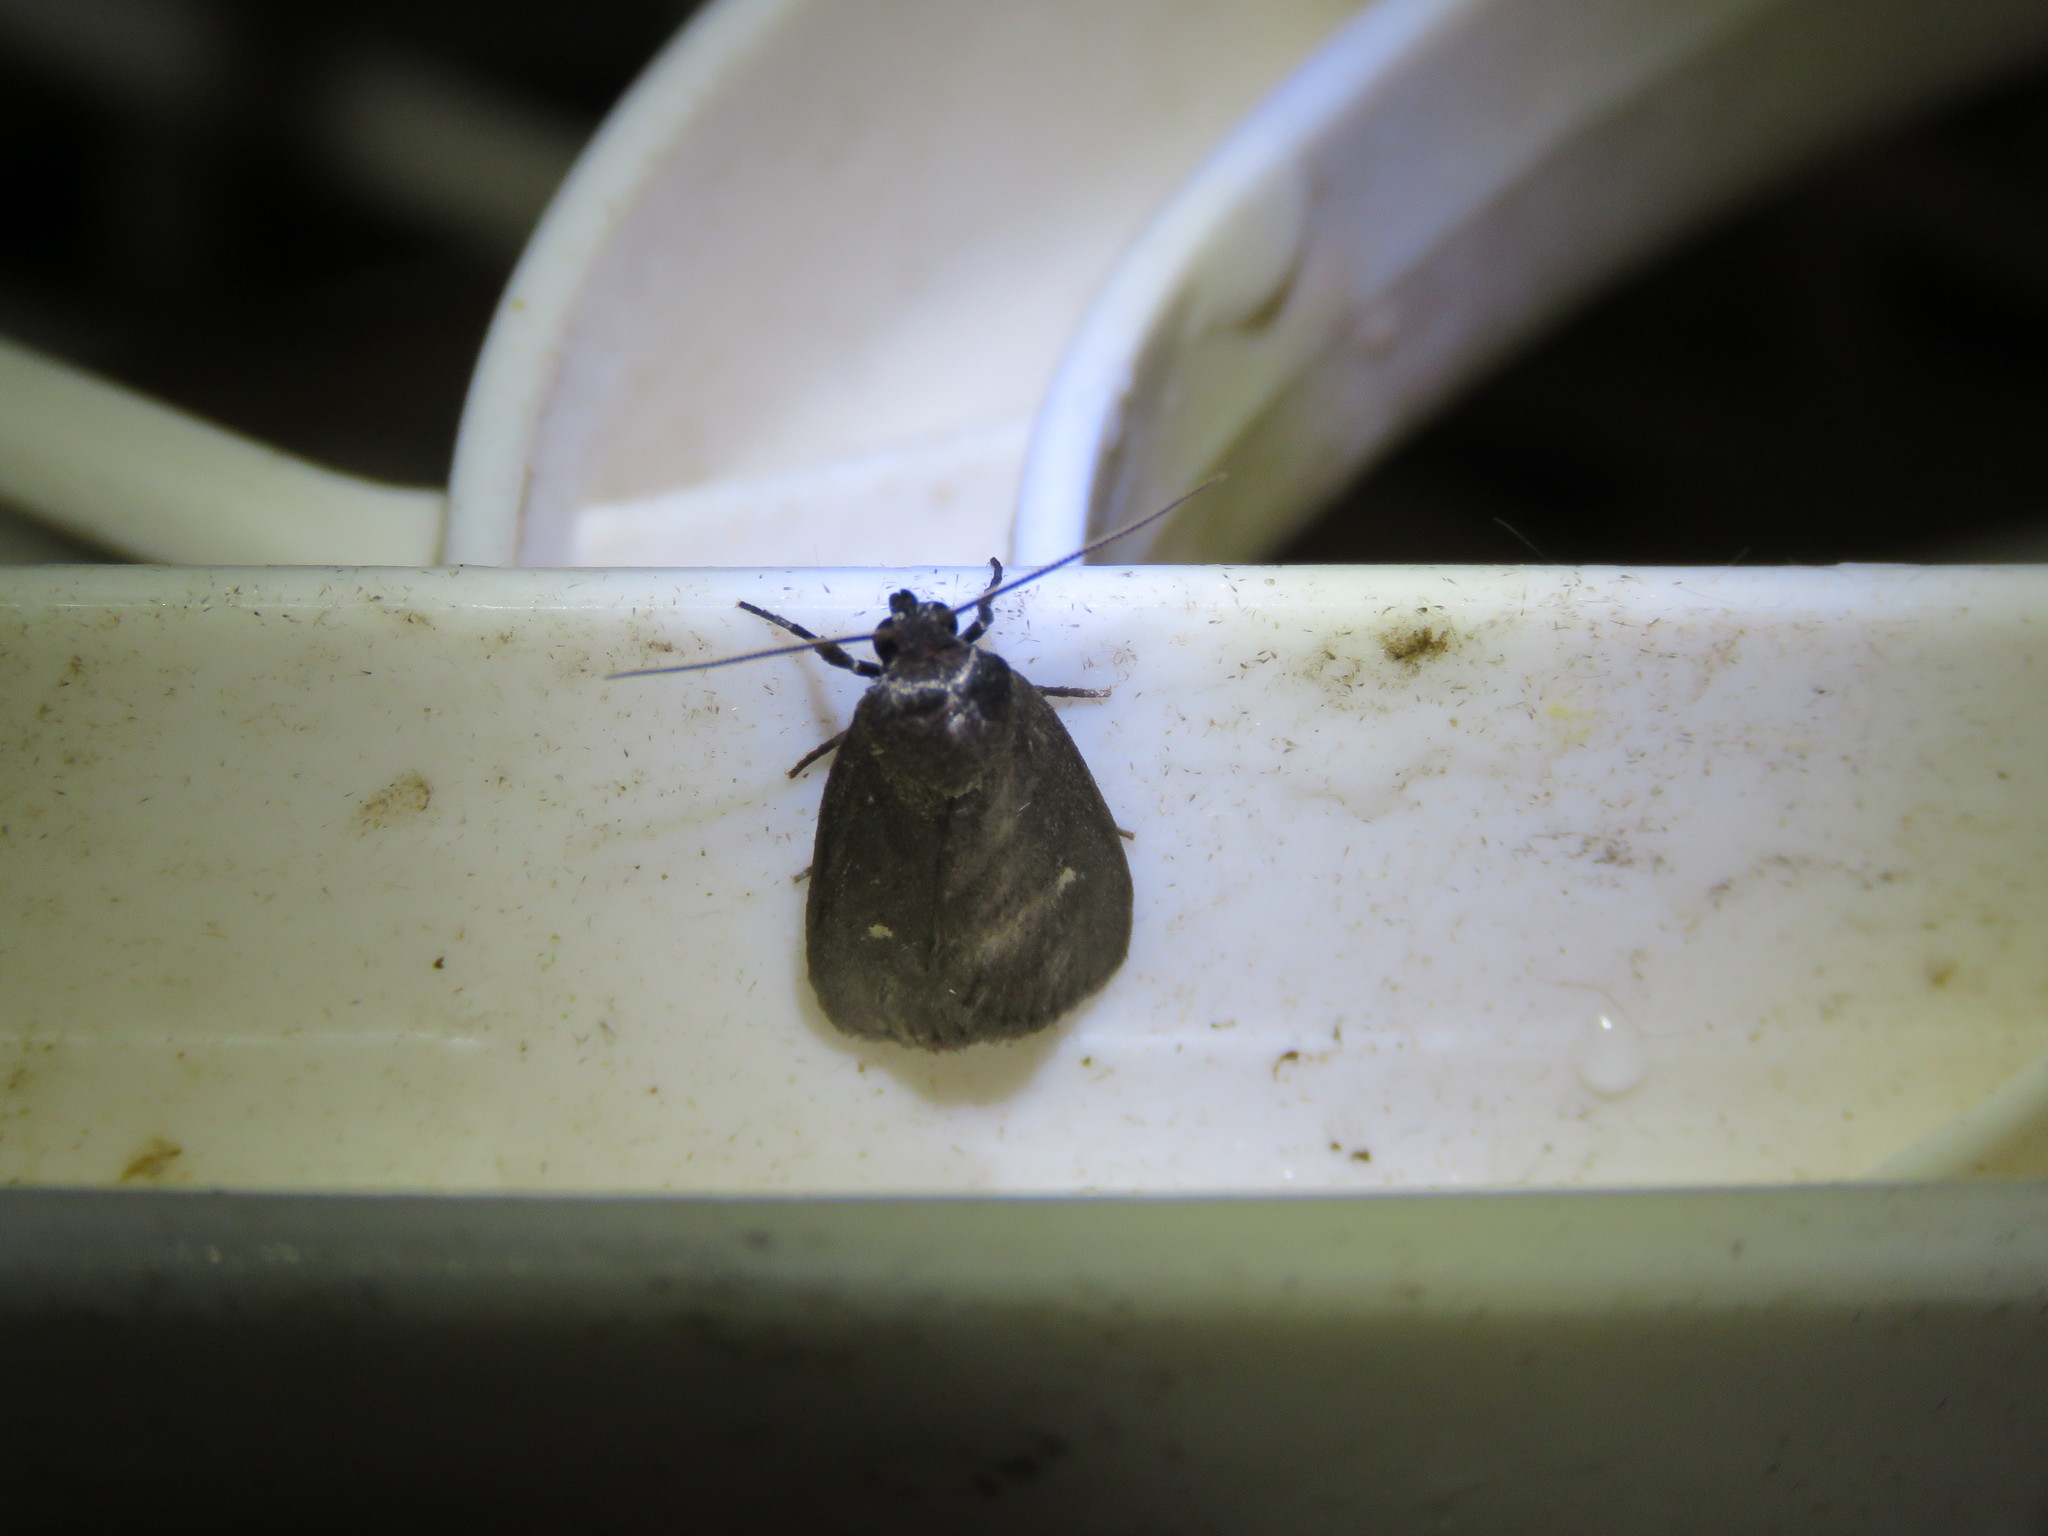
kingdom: Animalia
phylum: Arthropoda
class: Insecta
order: Lepidoptera
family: Noctuidae
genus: Proxenus
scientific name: Proxenus miranda
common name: Miranda moth
